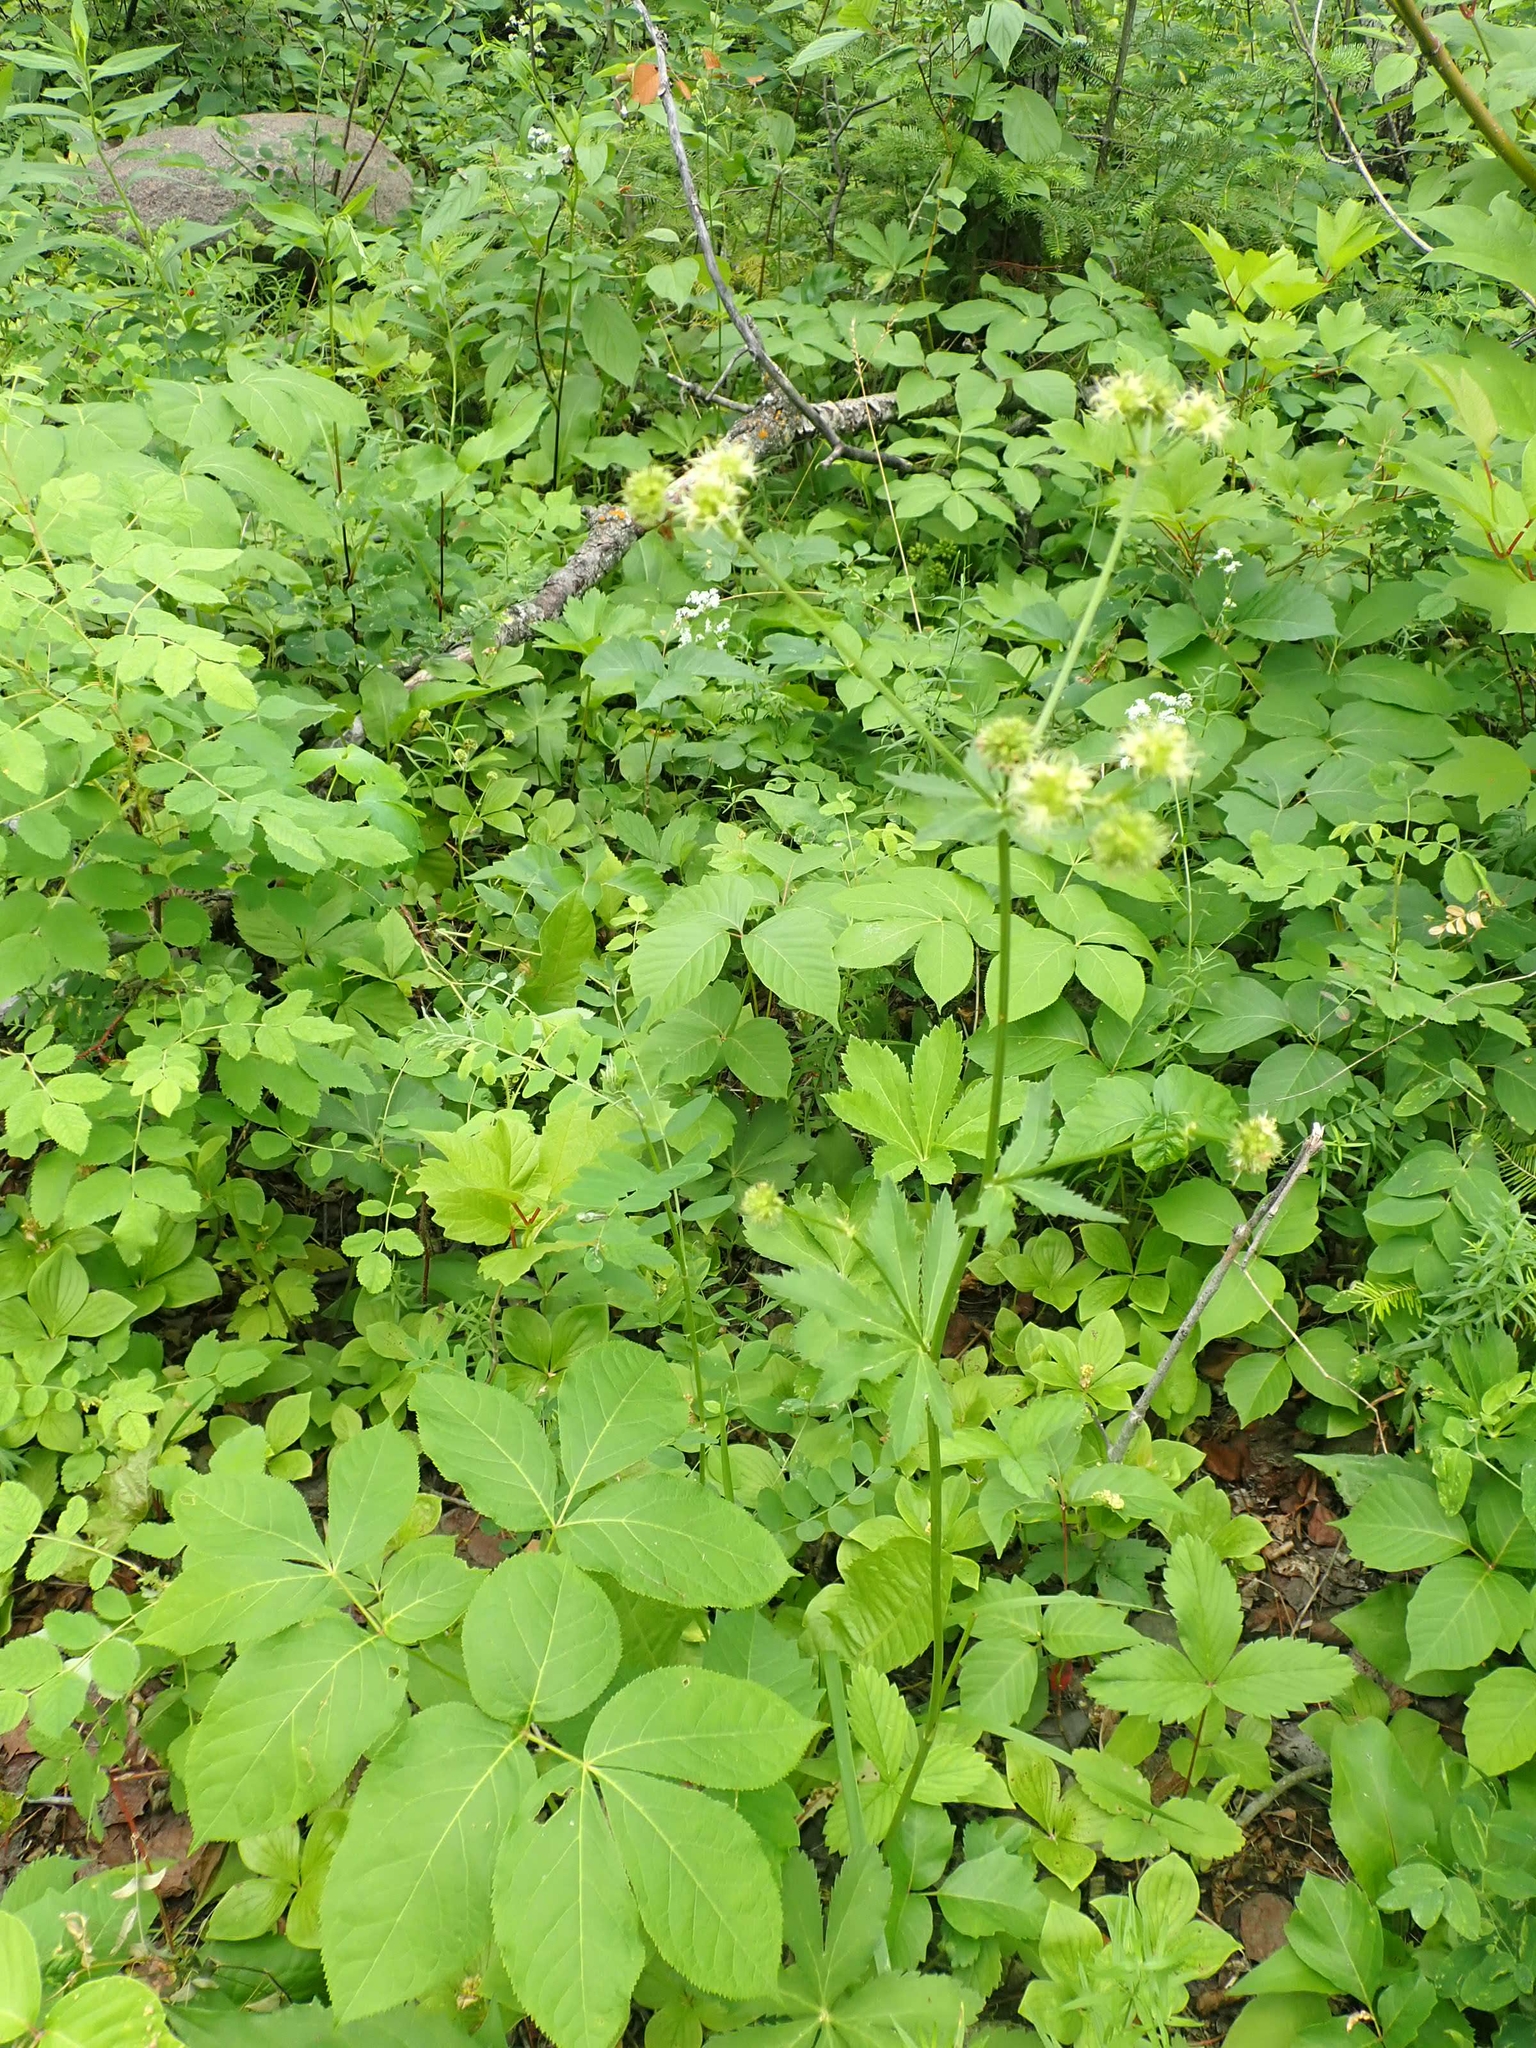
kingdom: Plantae
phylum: Tracheophyta
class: Magnoliopsida
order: Apiales
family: Apiaceae
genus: Sanicula
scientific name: Sanicula marilandica
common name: Black snakeroot
